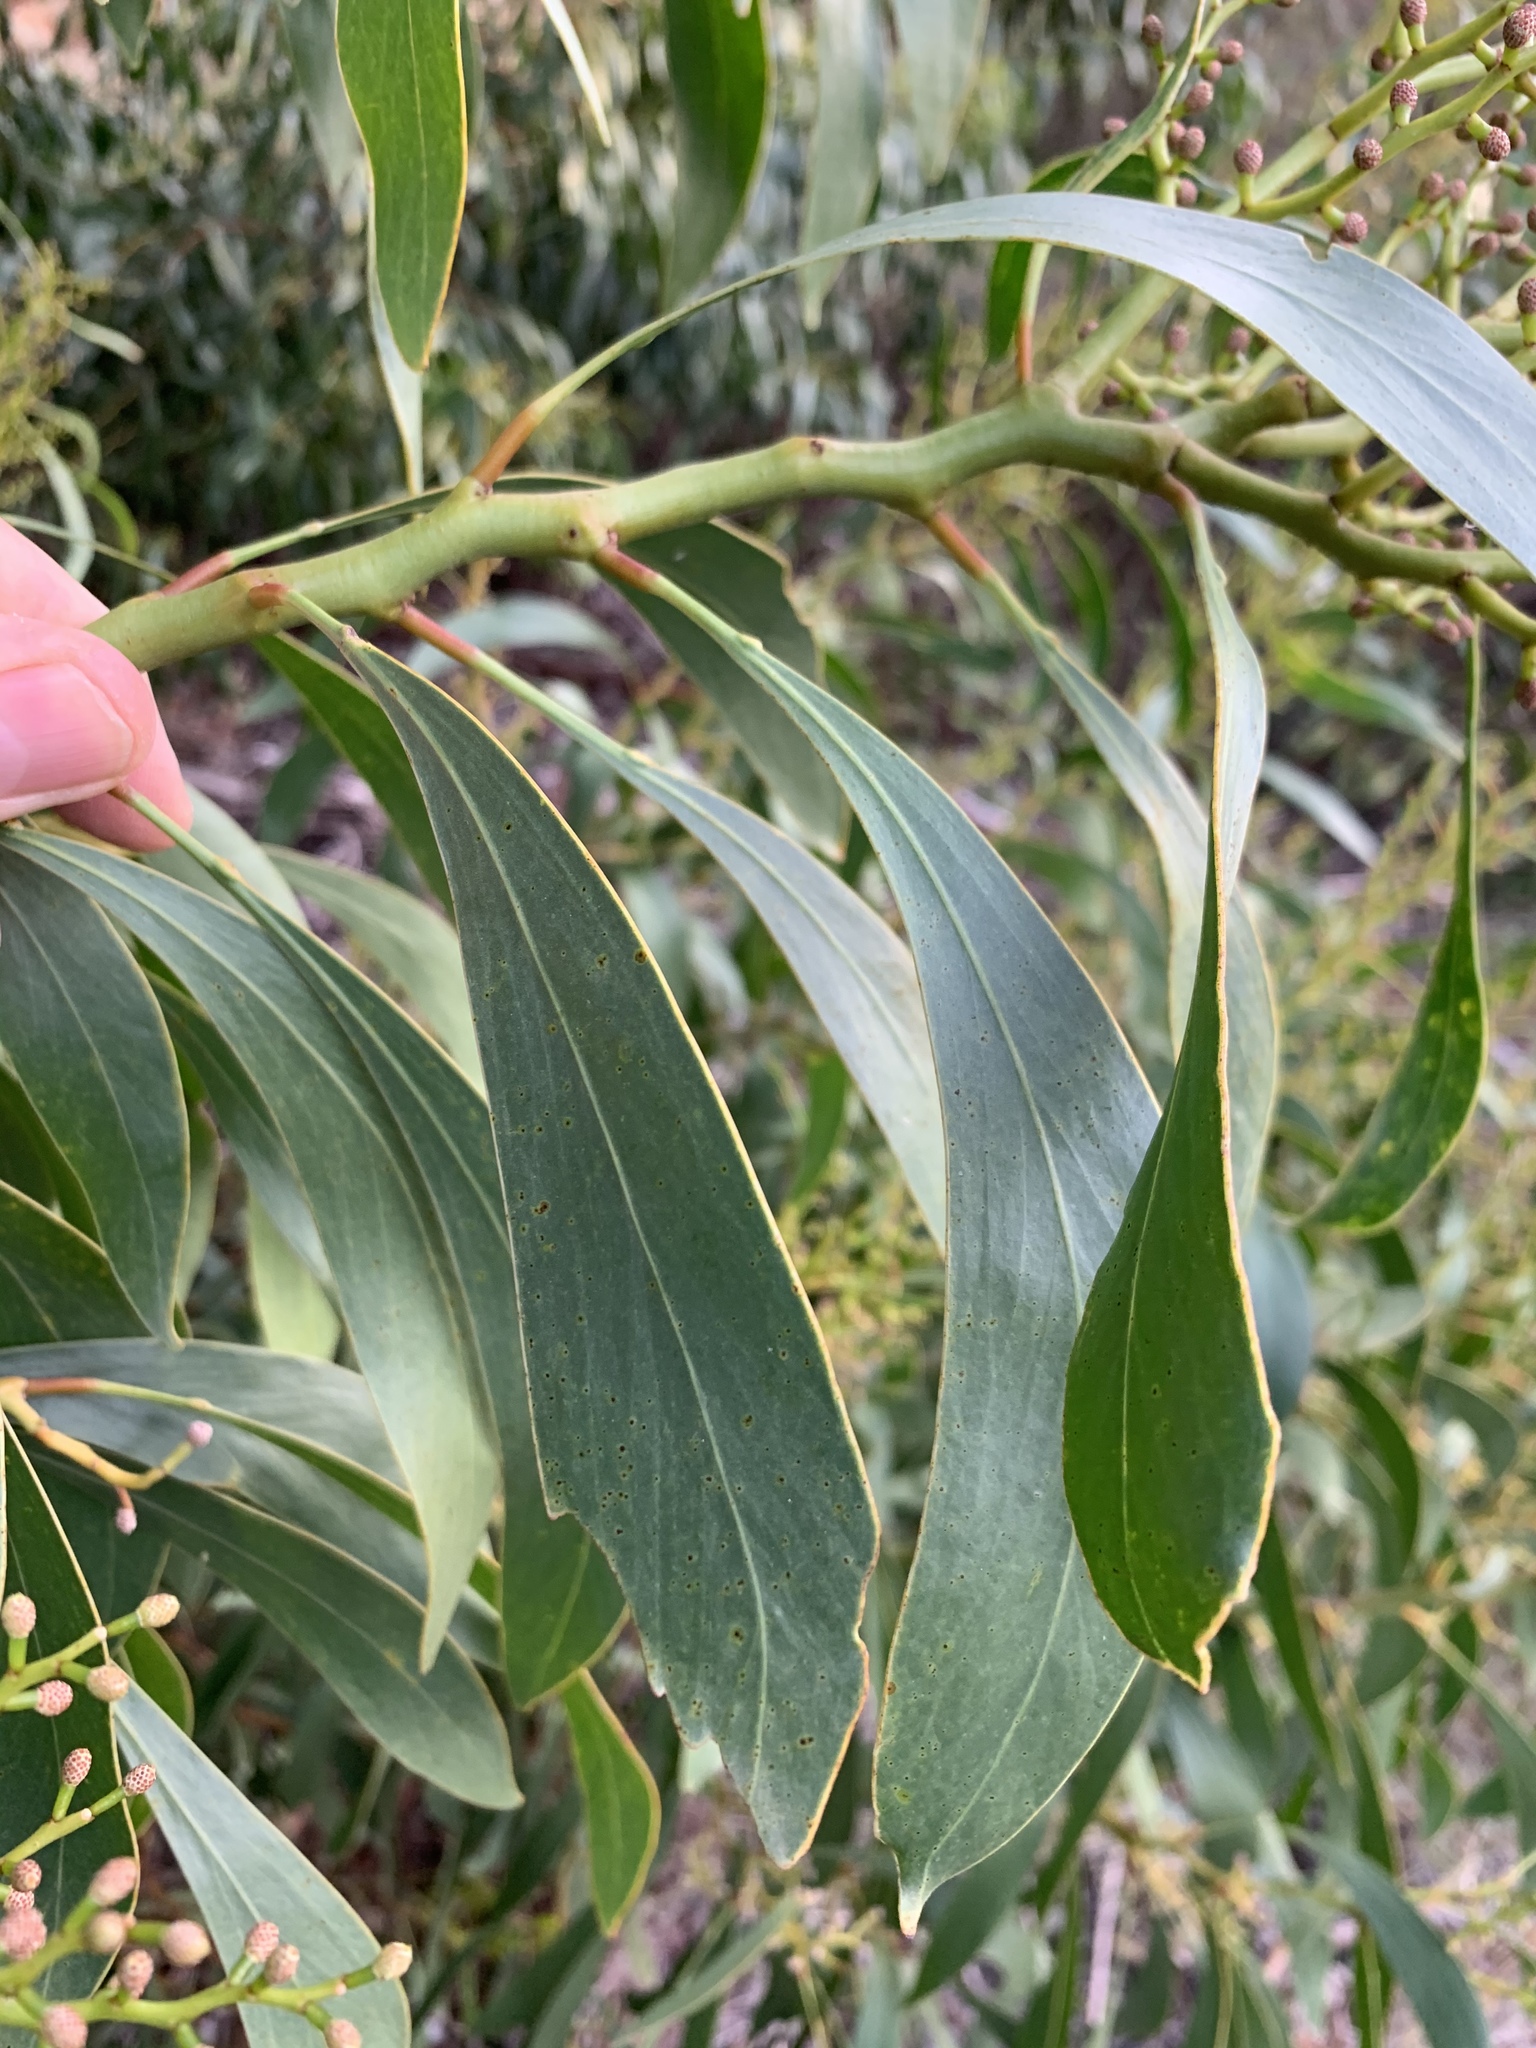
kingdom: Plantae
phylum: Tracheophyta
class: Magnoliopsida
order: Fabales
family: Fabaceae
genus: Acacia
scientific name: Acacia pycnantha
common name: Golden wattle
